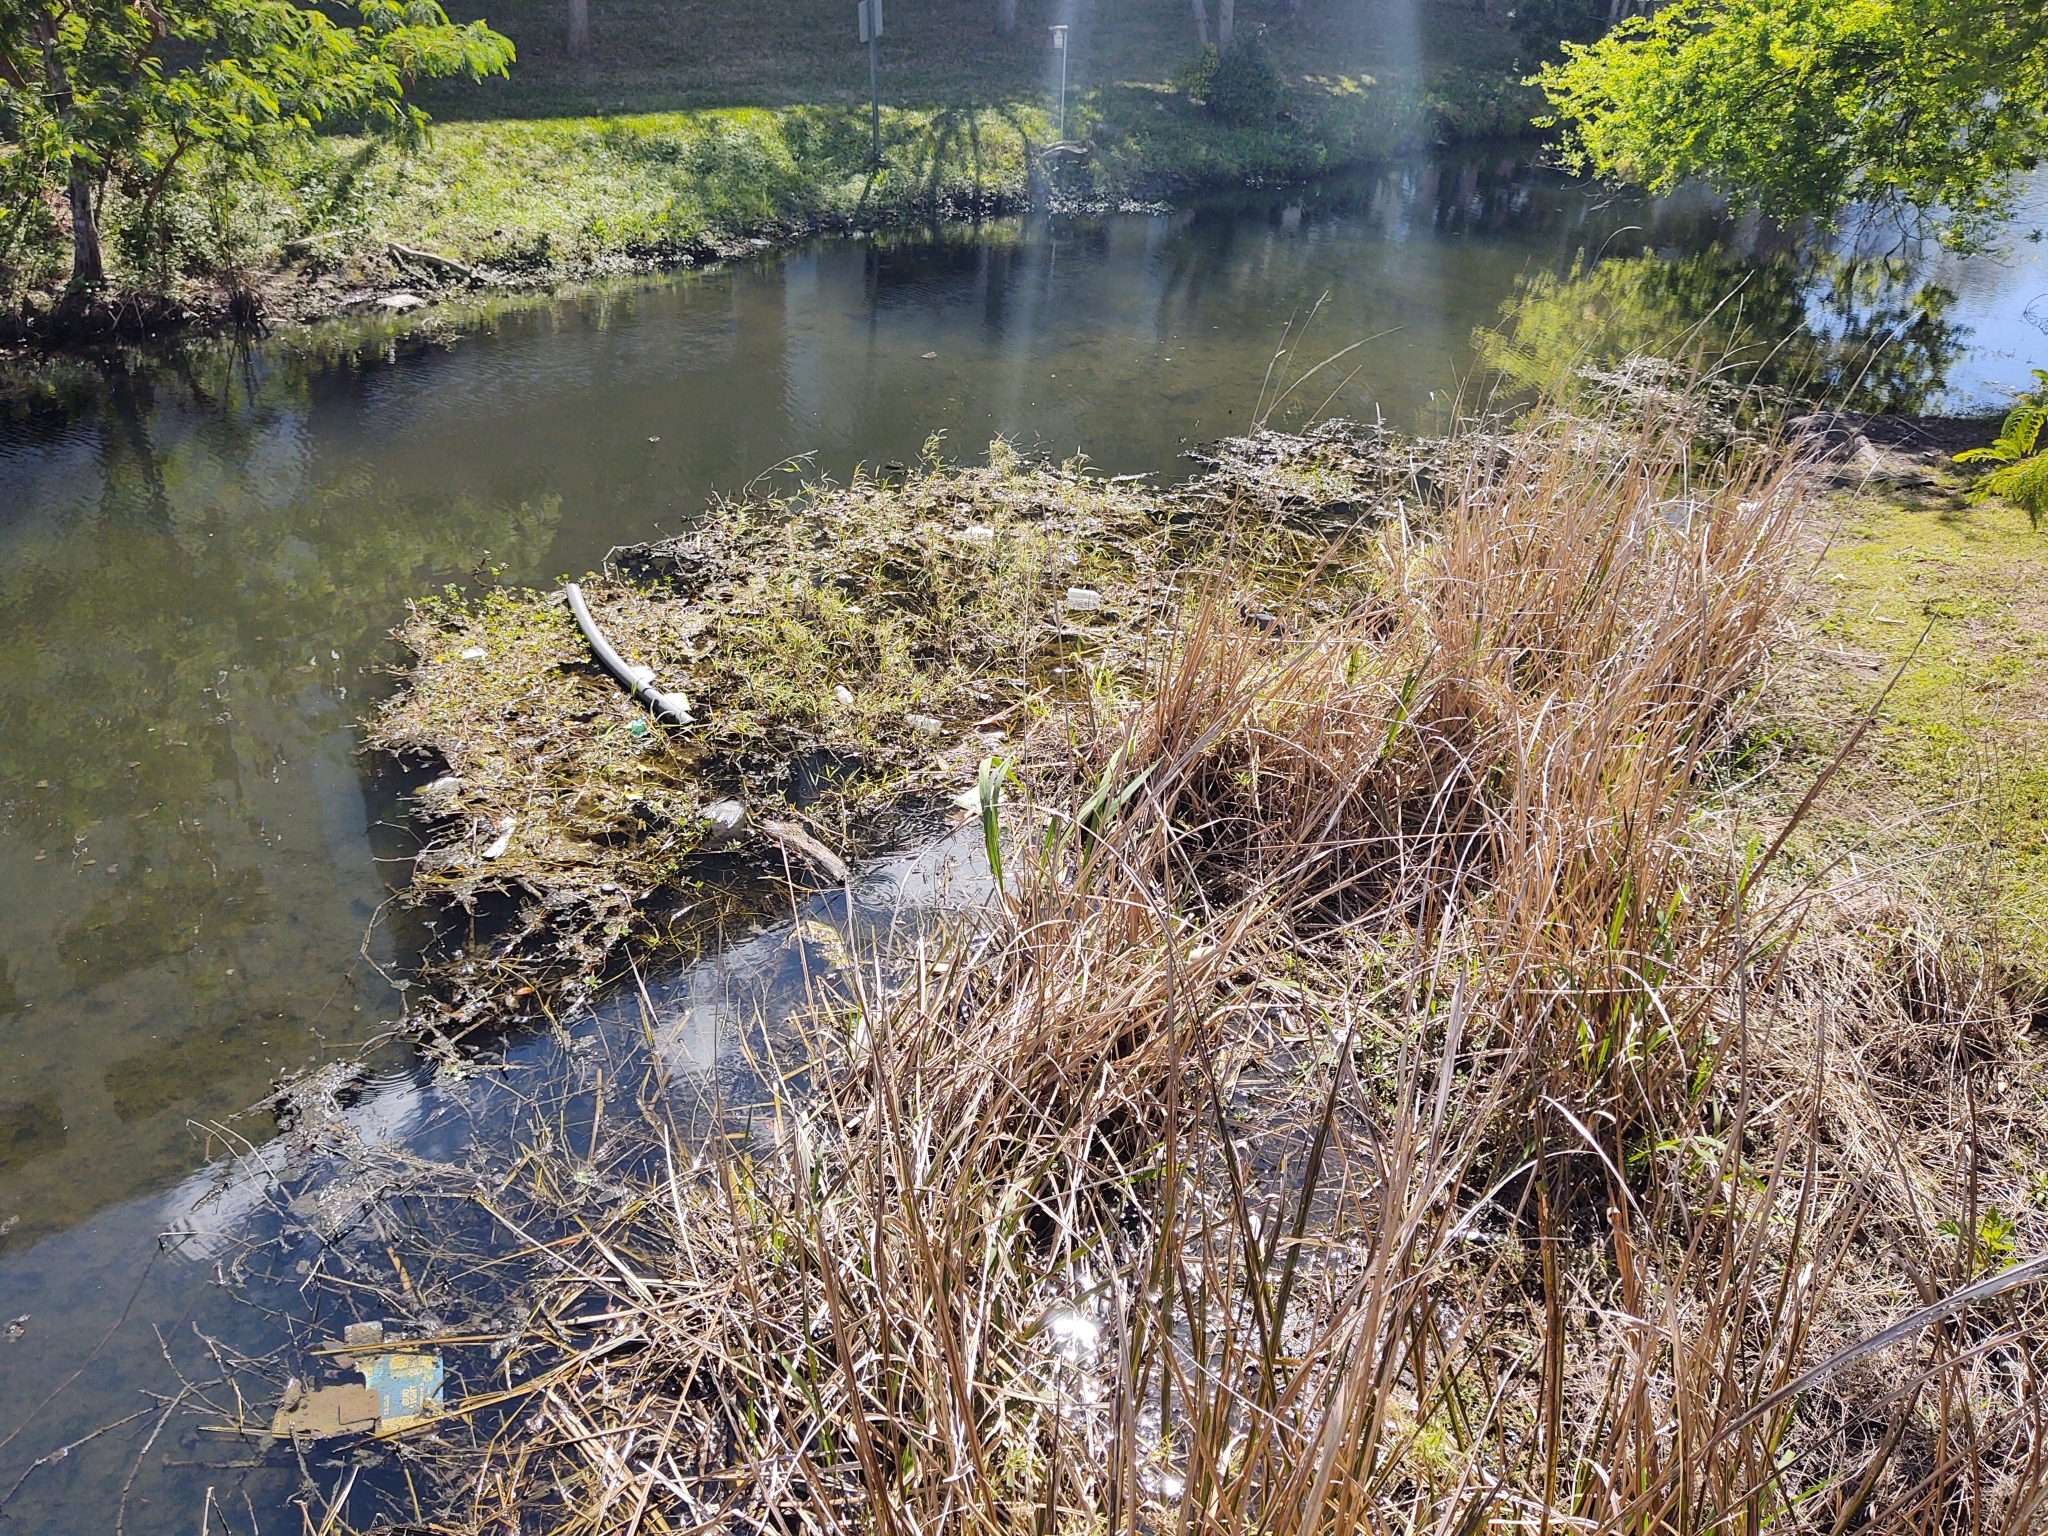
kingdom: Animalia
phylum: Chordata
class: Testudines
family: Chelydridae
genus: Chelydra
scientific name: Chelydra serpentina
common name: Common snapping turtle
